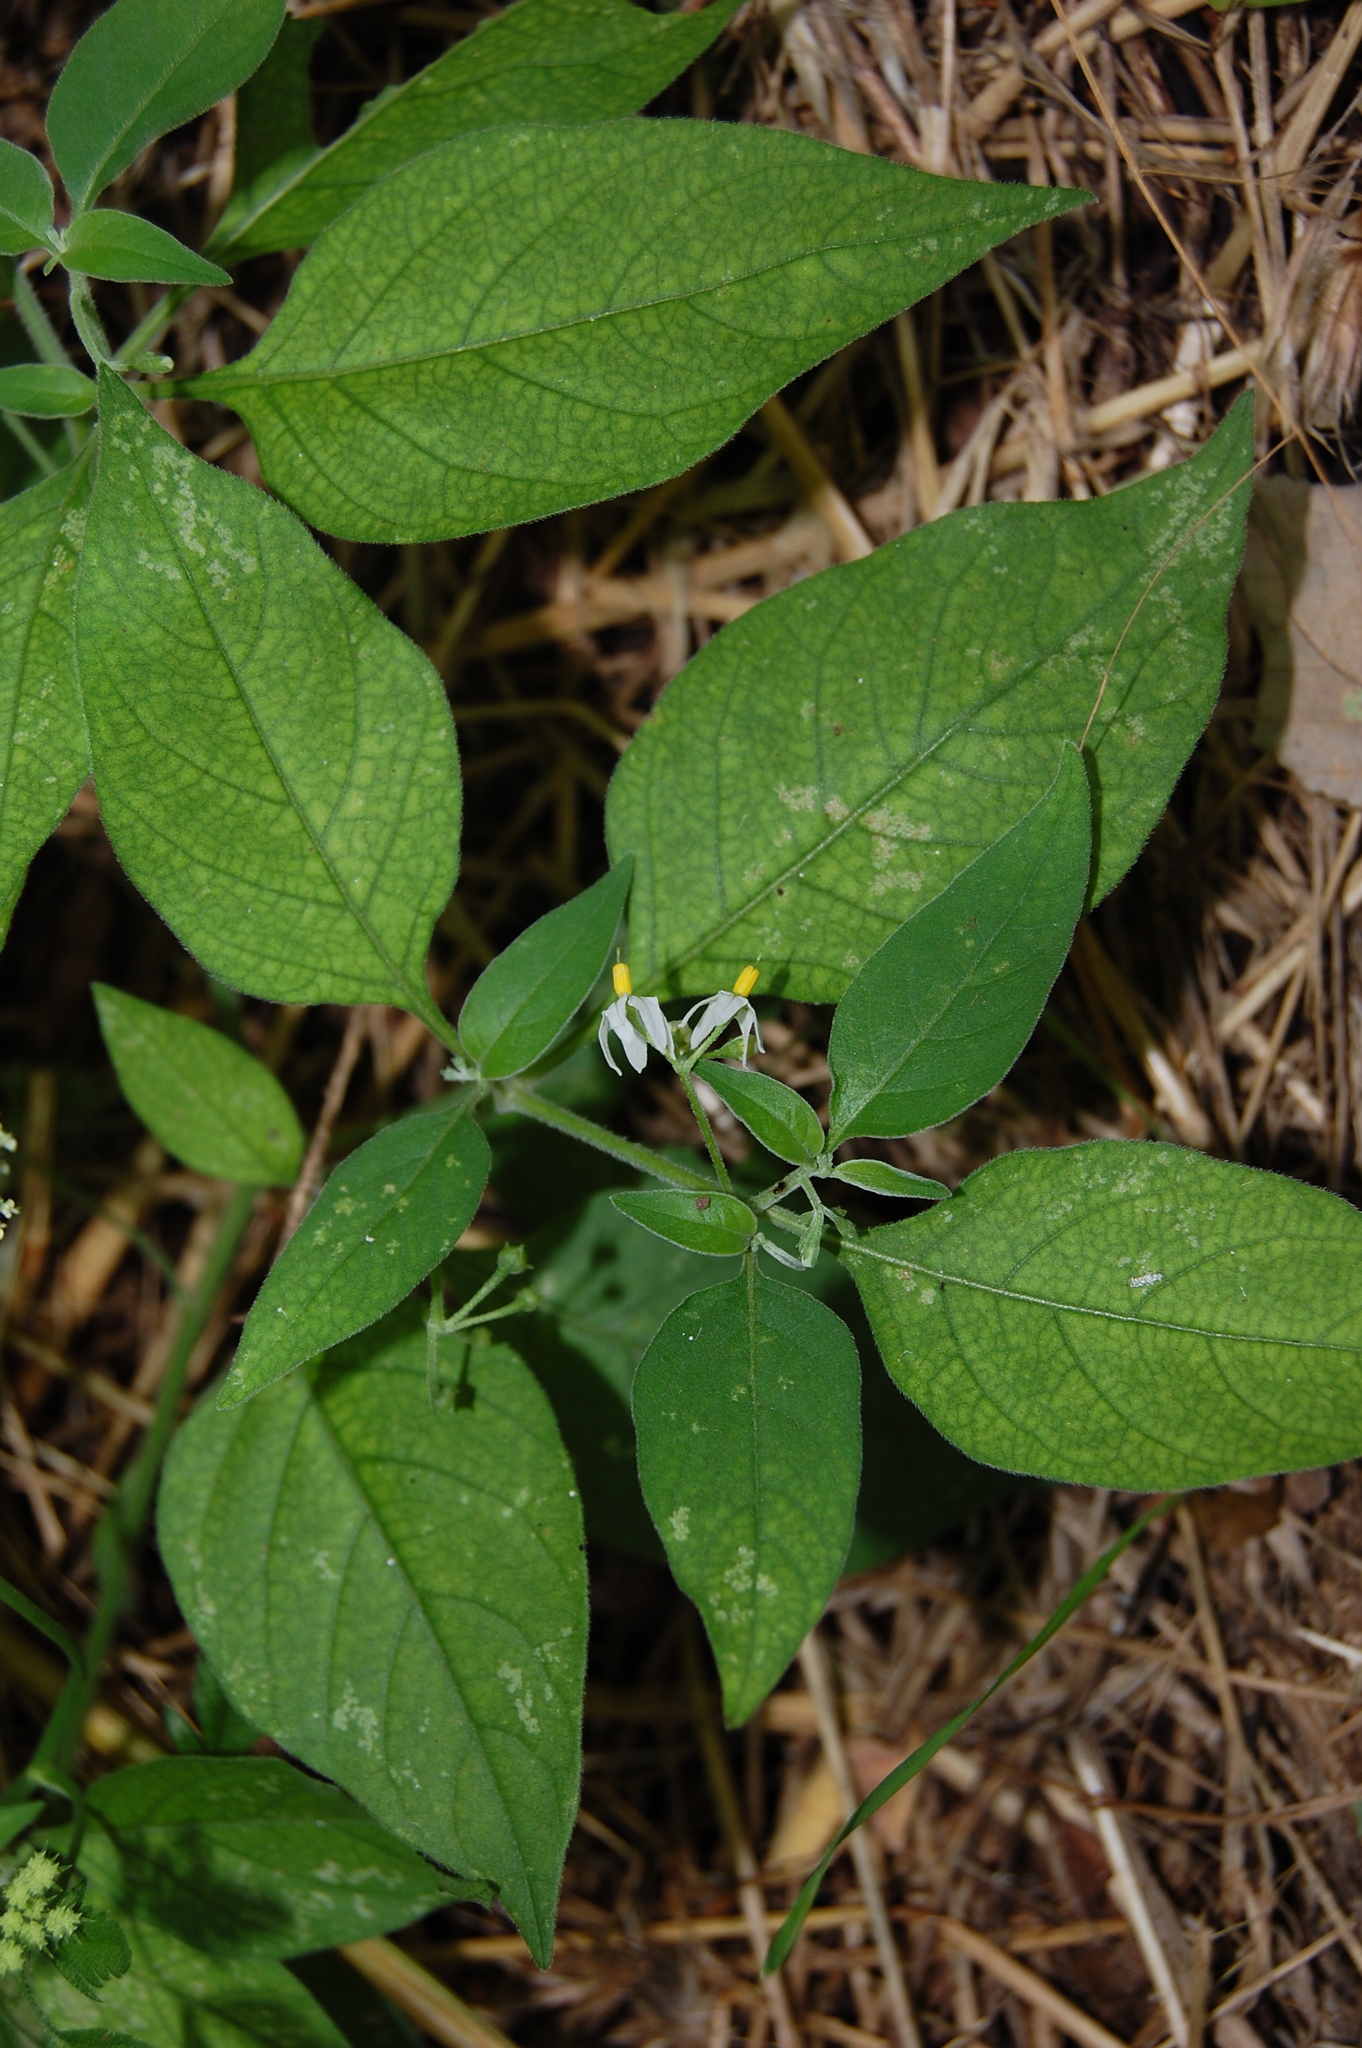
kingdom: Plantae
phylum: Tracheophyta
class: Magnoliopsida
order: Solanales
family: Solanaceae
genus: Solanum
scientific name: Solanum chenopodioides
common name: Tall nightshade
